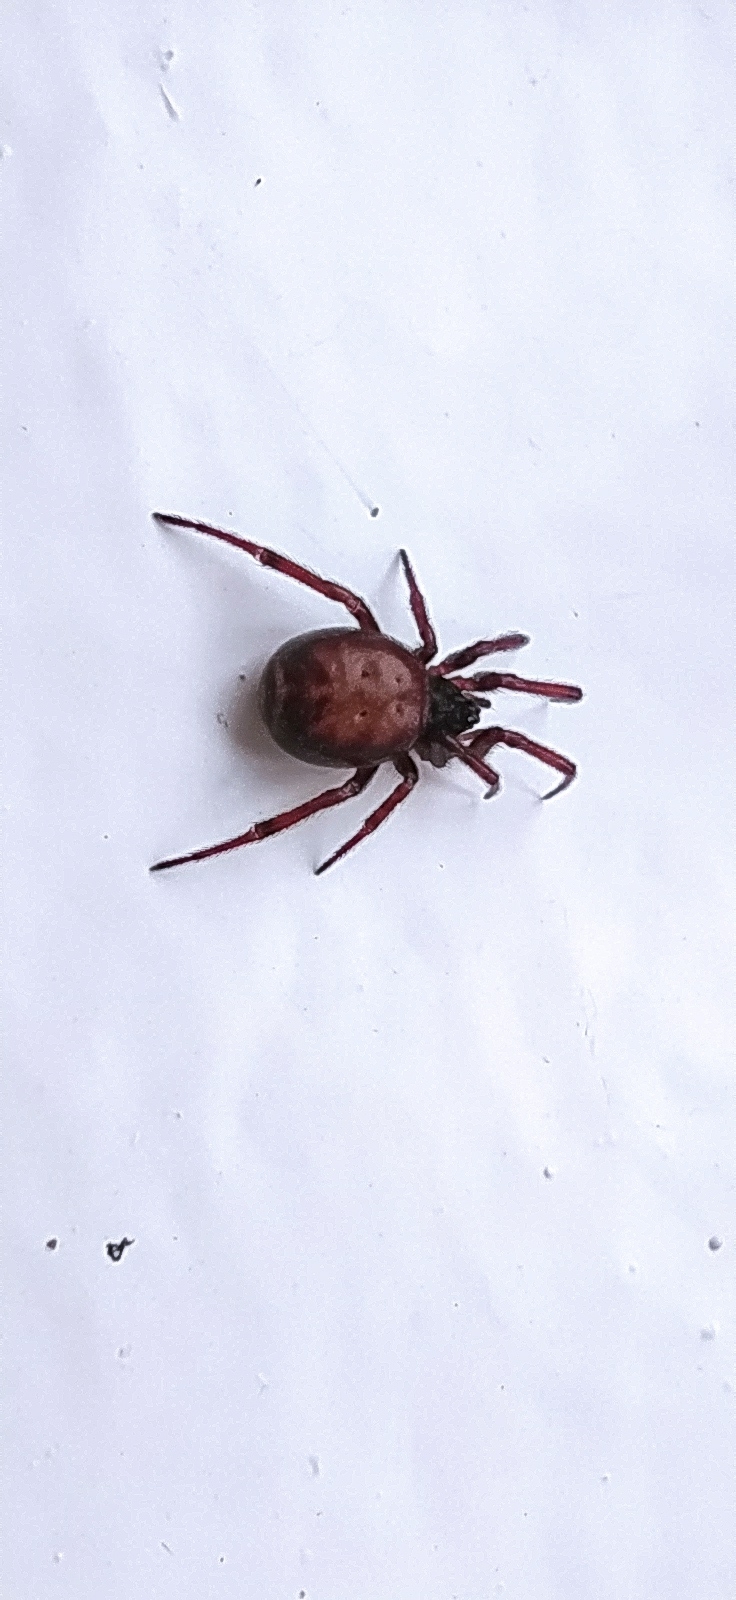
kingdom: Animalia
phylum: Arthropoda
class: Arachnida
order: Araneae
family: Theridiidae
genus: Steatoda
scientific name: Steatoda bipunctata
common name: False widow
